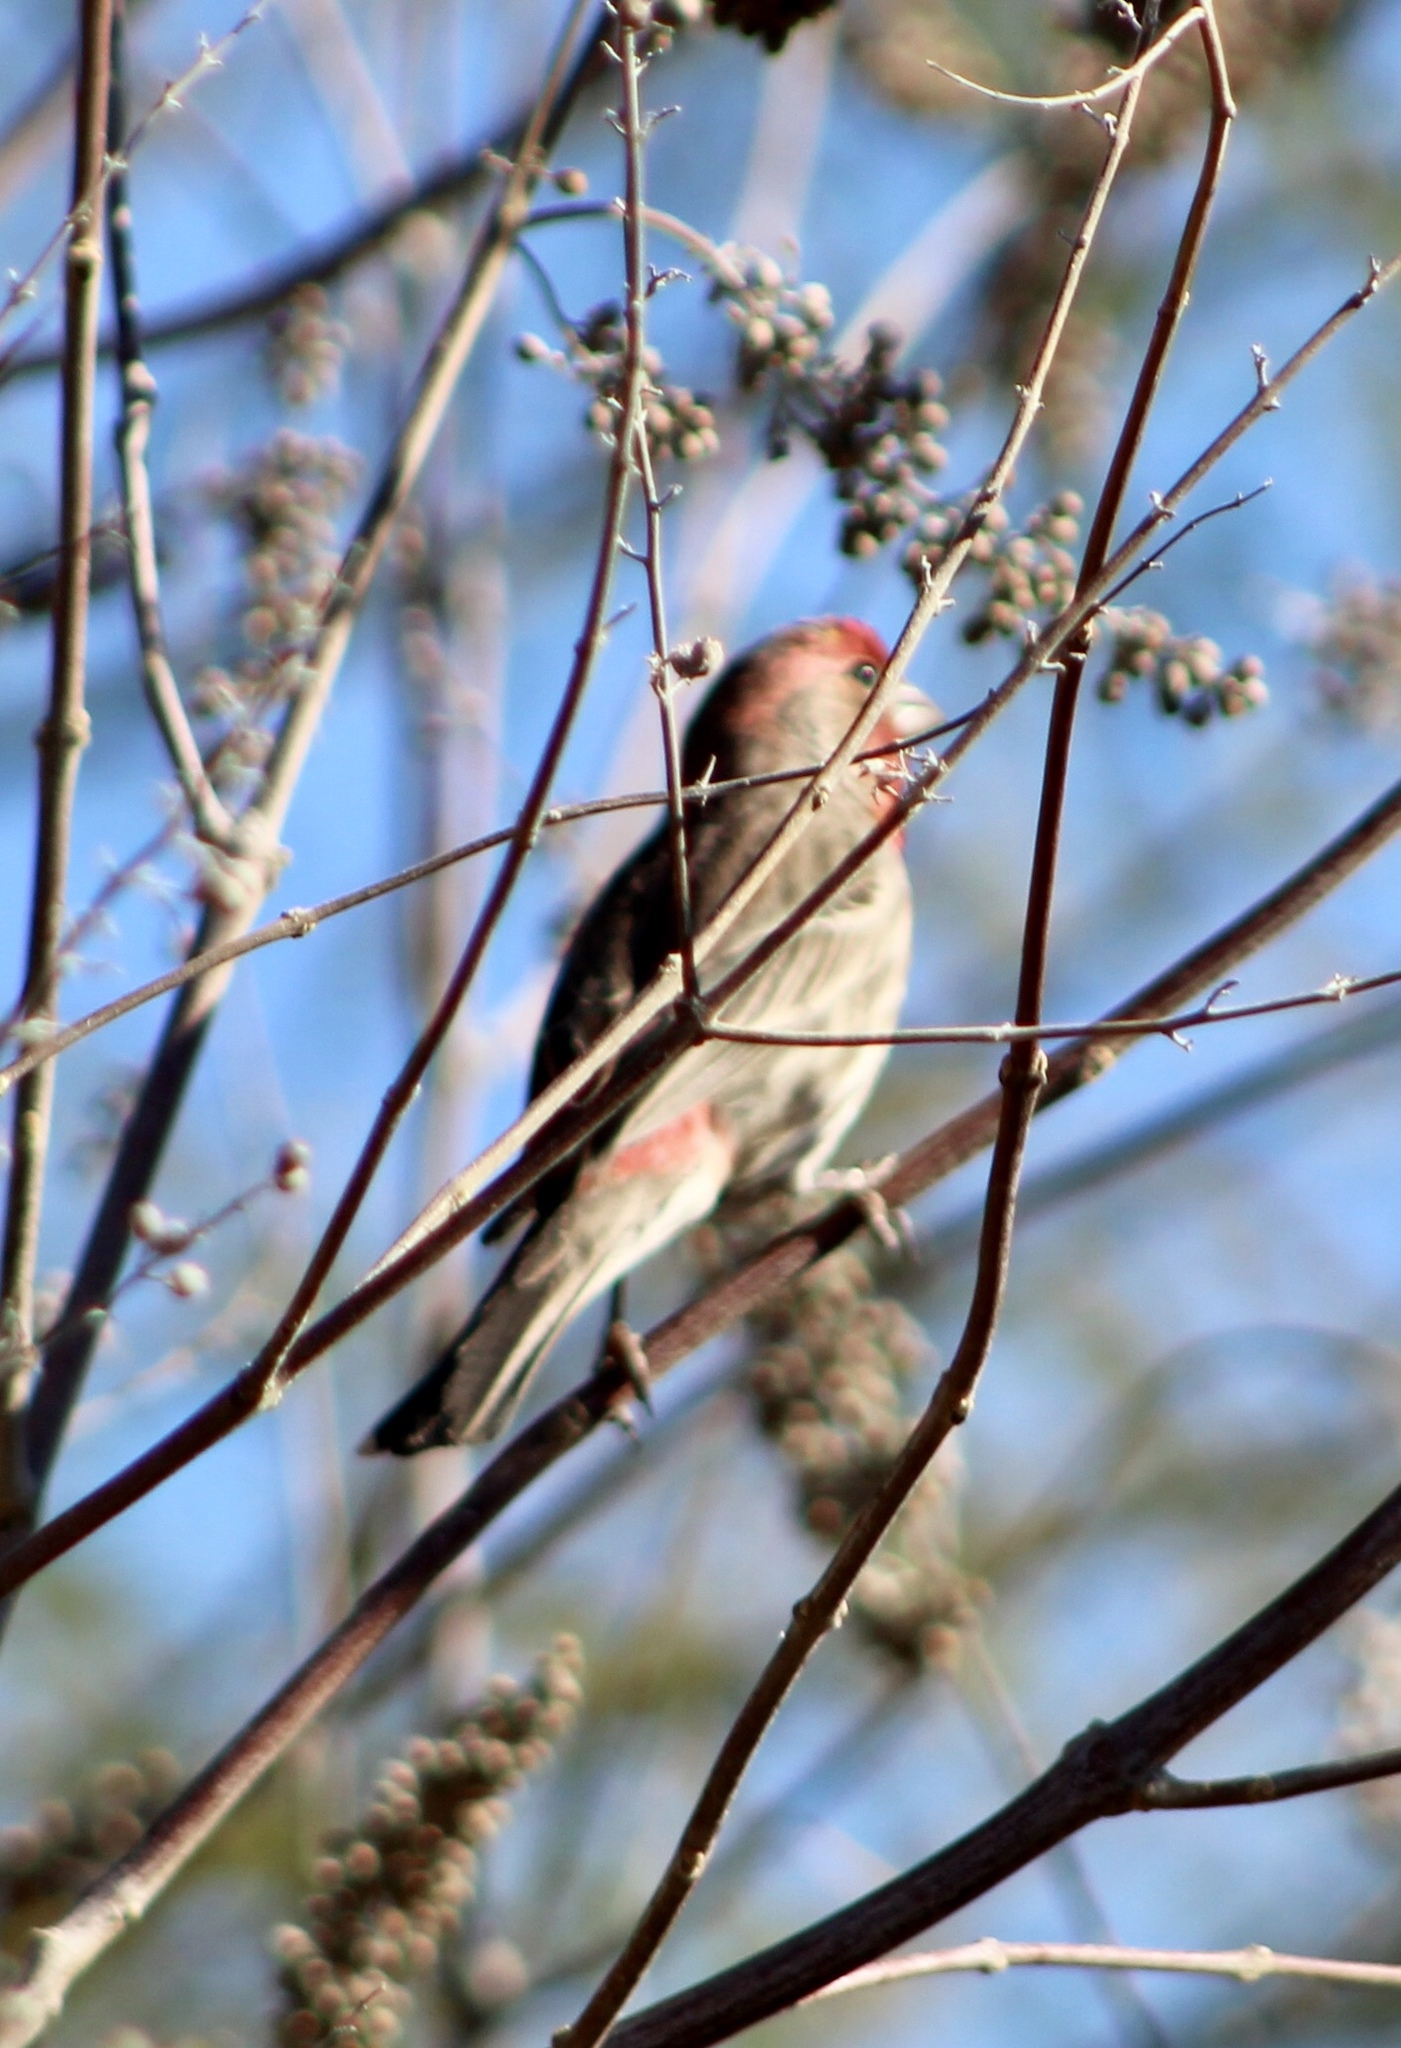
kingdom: Animalia
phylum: Chordata
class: Aves
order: Passeriformes
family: Fringillidae
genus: Haemorhous
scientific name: Haemorhous mexicanus
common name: House finch
